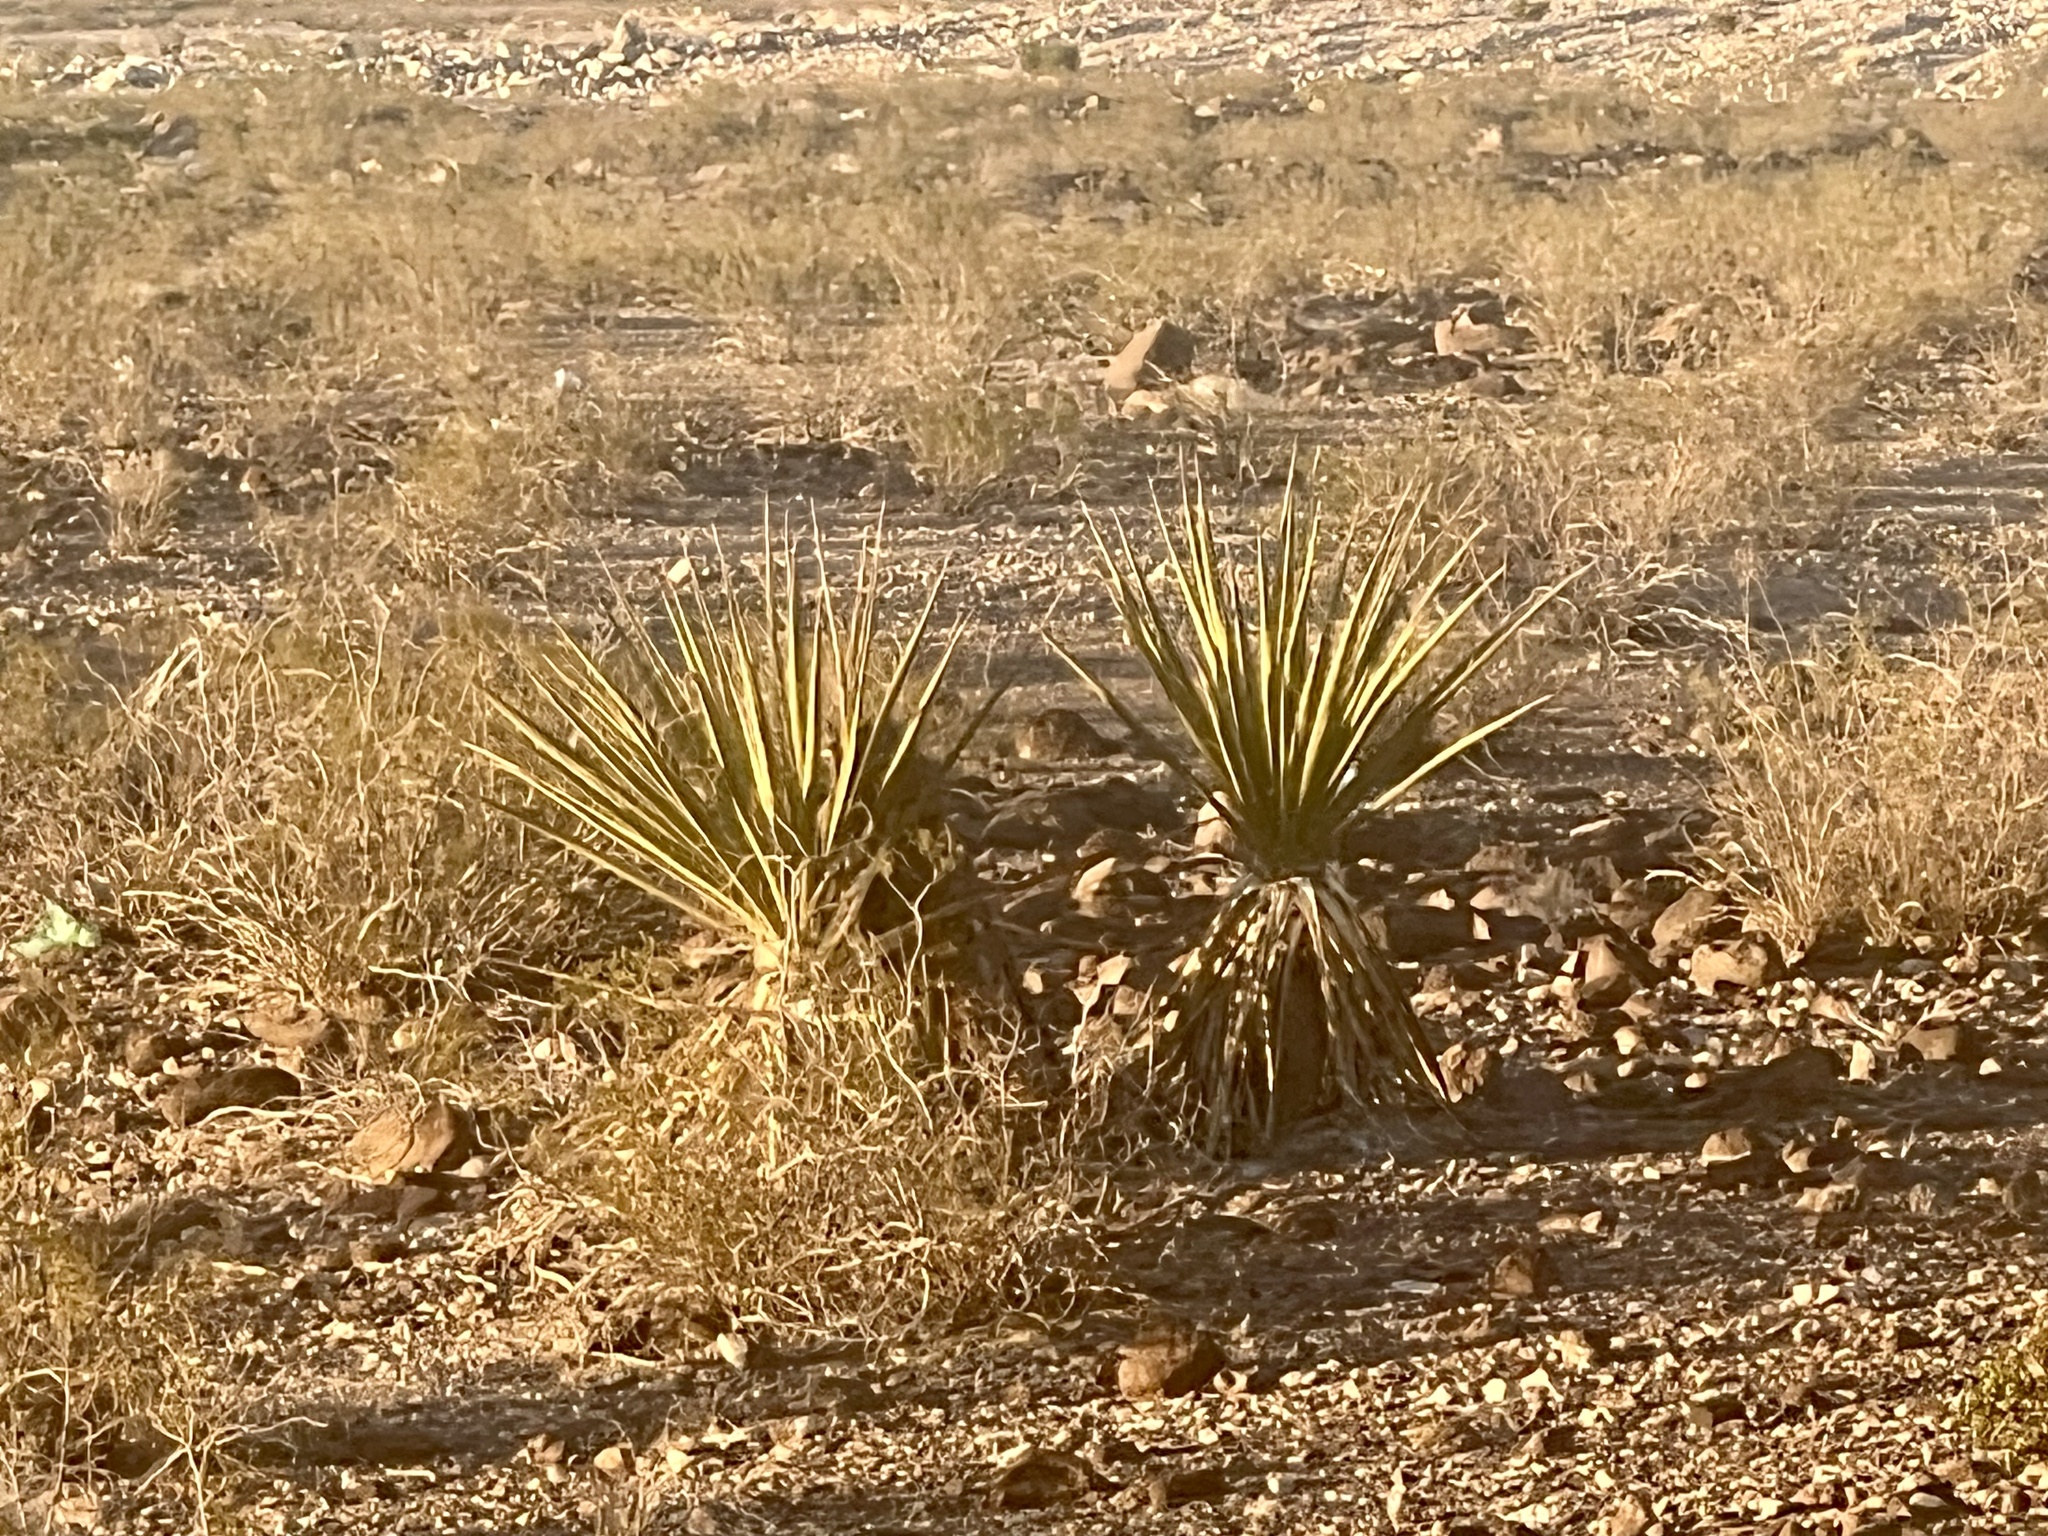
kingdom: Plantae
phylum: Tracheophyta
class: Liliopsida
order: Asparagales
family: Asparagaceae
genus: Yucca
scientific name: Yucca schidigera
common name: Mojave yucca
